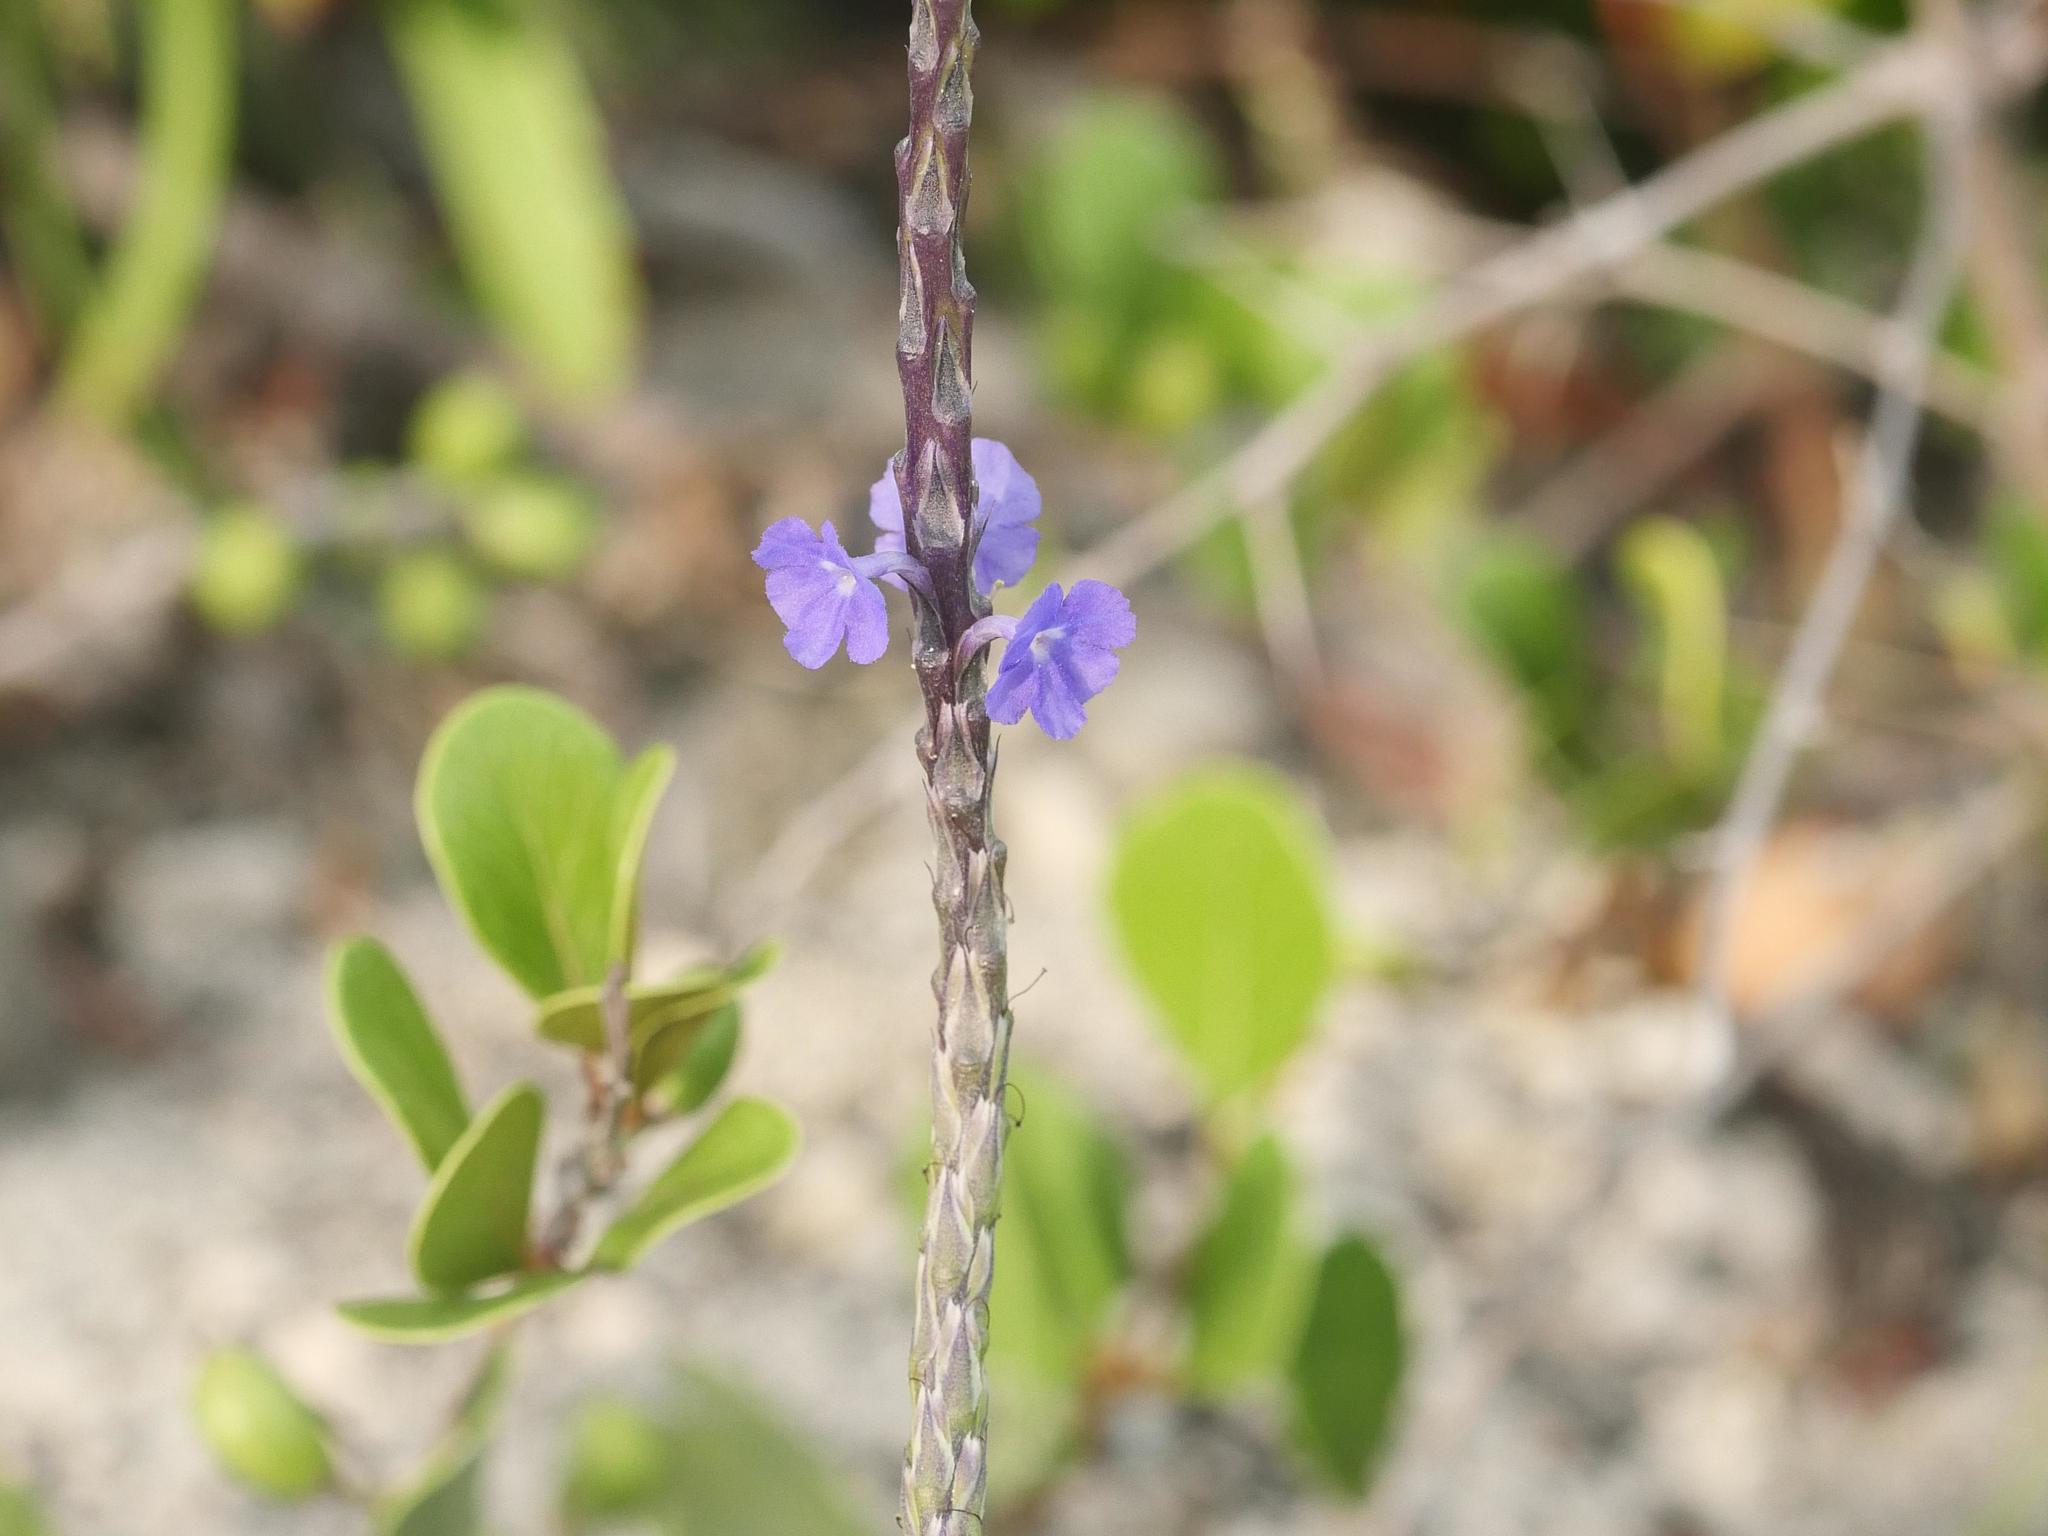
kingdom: Plantae
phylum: Tracheophyta
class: Magnoliopsida
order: Lamiales
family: Verbenaceae
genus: Stachytarpheta
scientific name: Stachytarpheta jamaicensis
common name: Light-blue snakeweed
